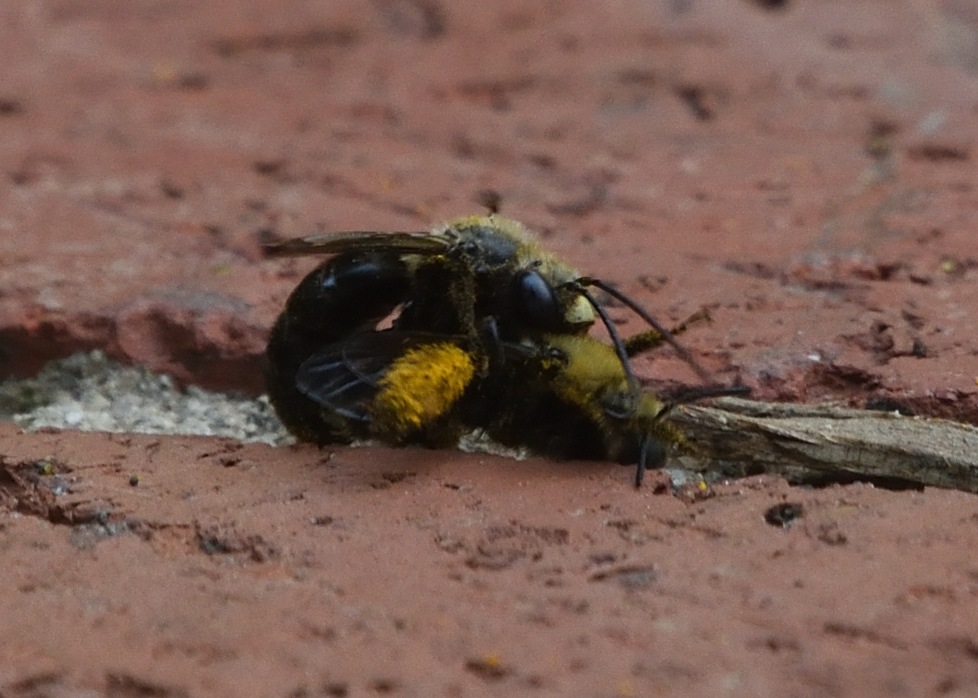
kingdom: Animalia
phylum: Arthropoda
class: Insecta
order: Hymenoptera
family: Apidae
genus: Melissodes
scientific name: Melissodes desponsus
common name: Thistle long-horned bee
